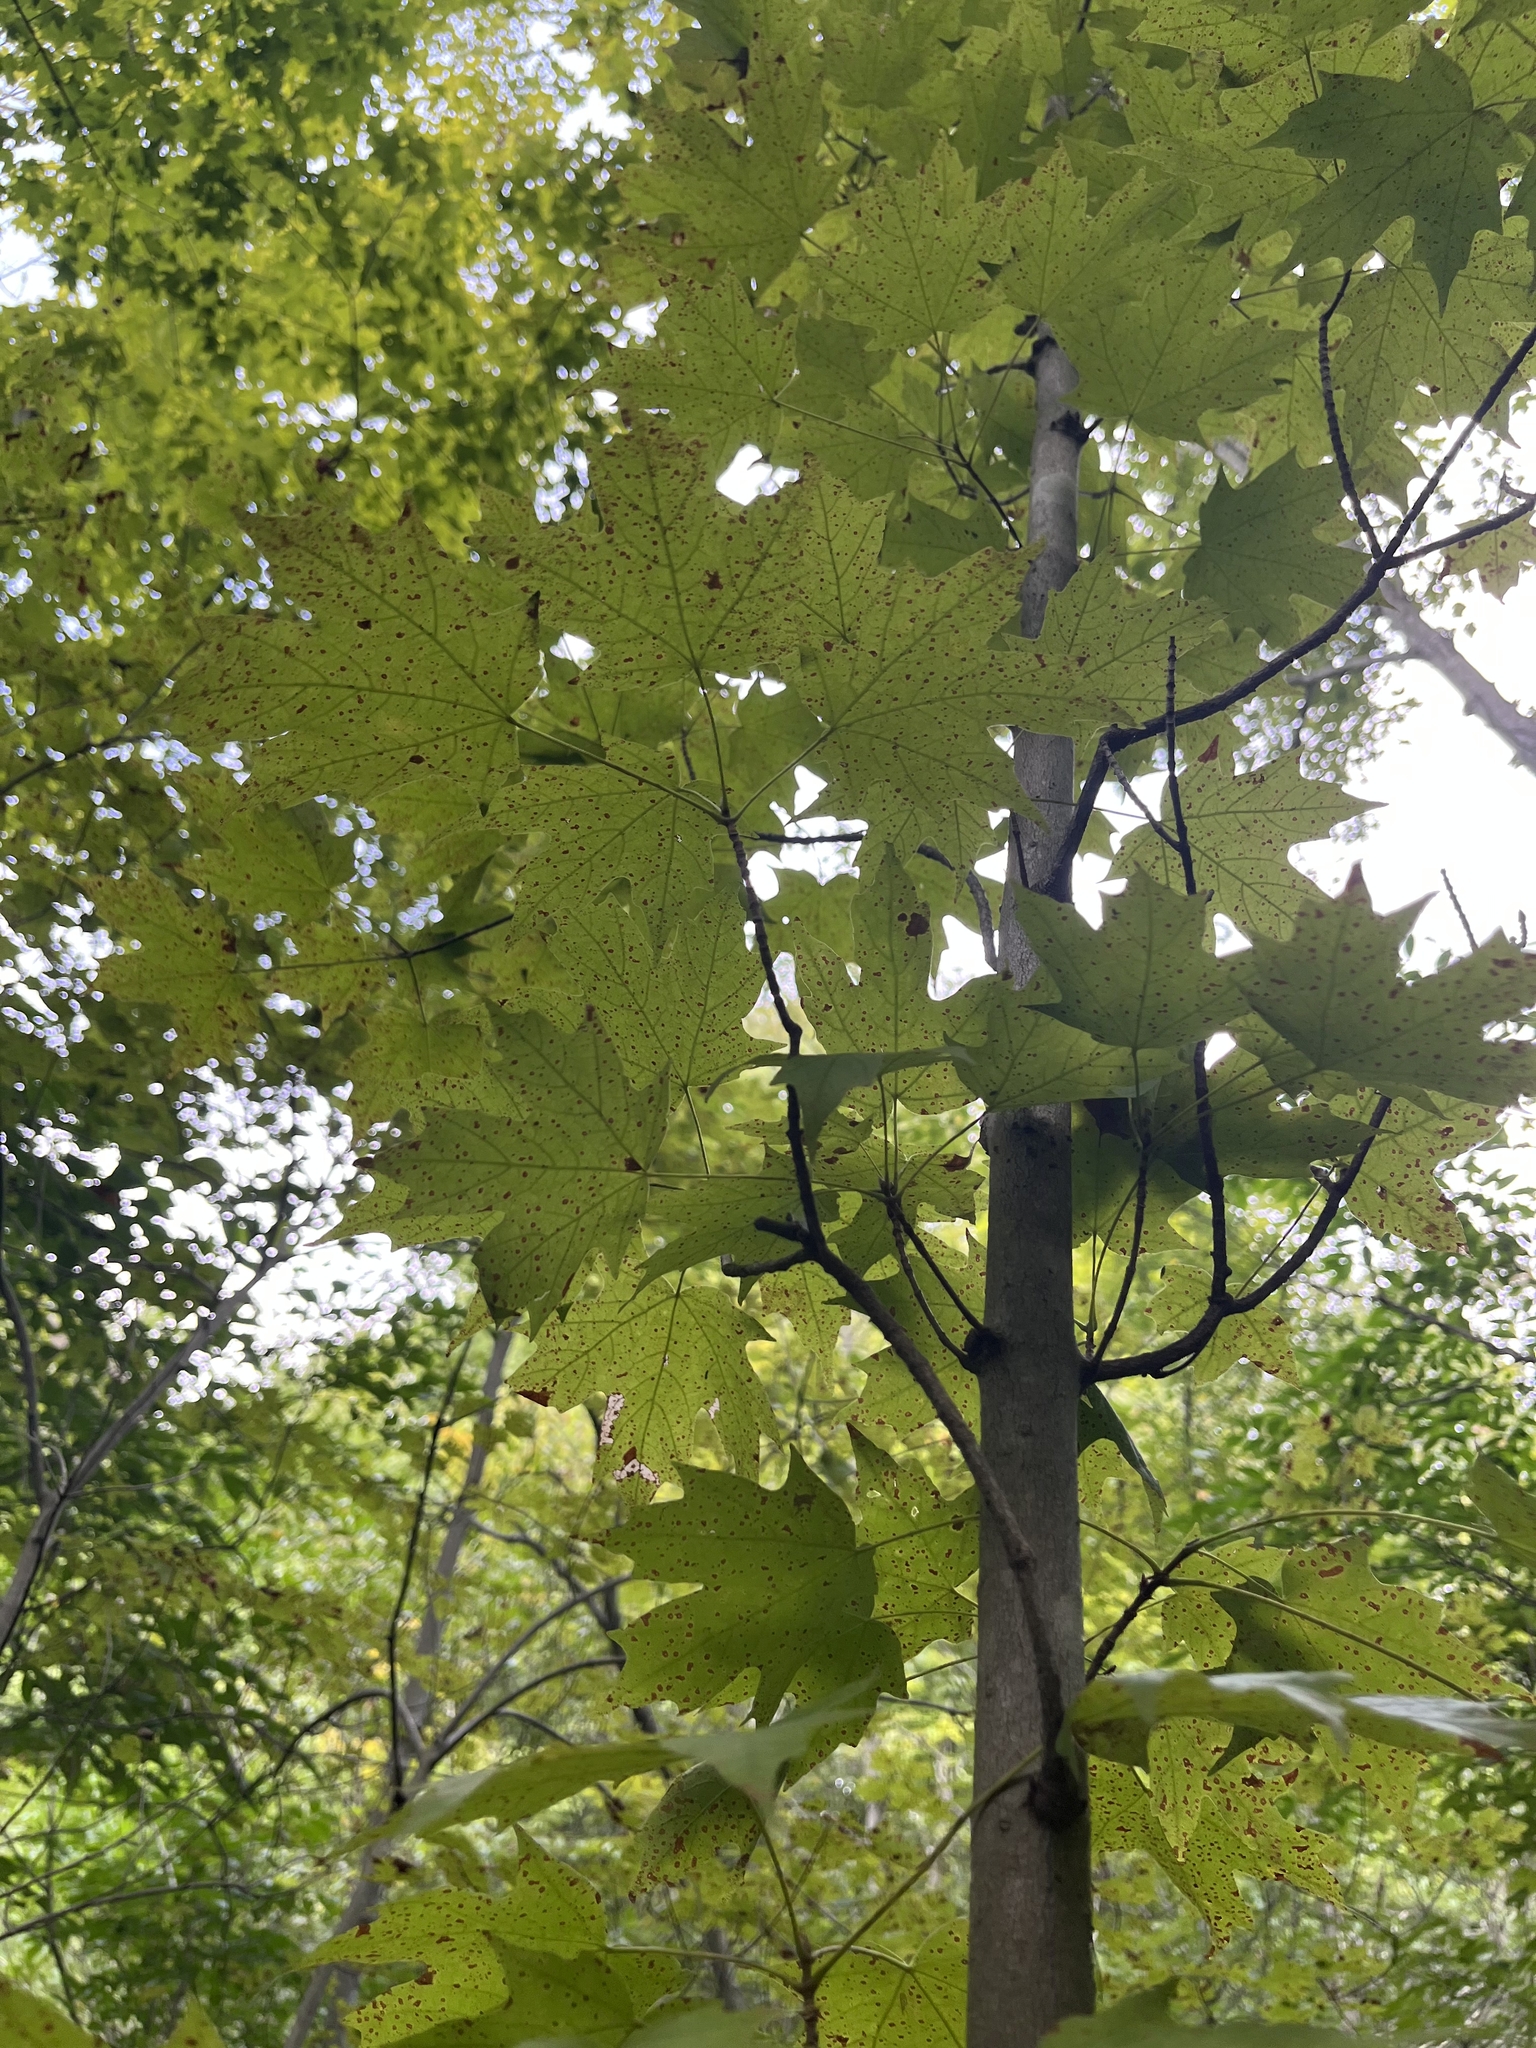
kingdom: Plantae
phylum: Tracheophyta
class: Magnoliopsida
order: Sapindales
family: Sapindaceae
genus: Acer
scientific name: Acer saccharum
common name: Sugar maple
